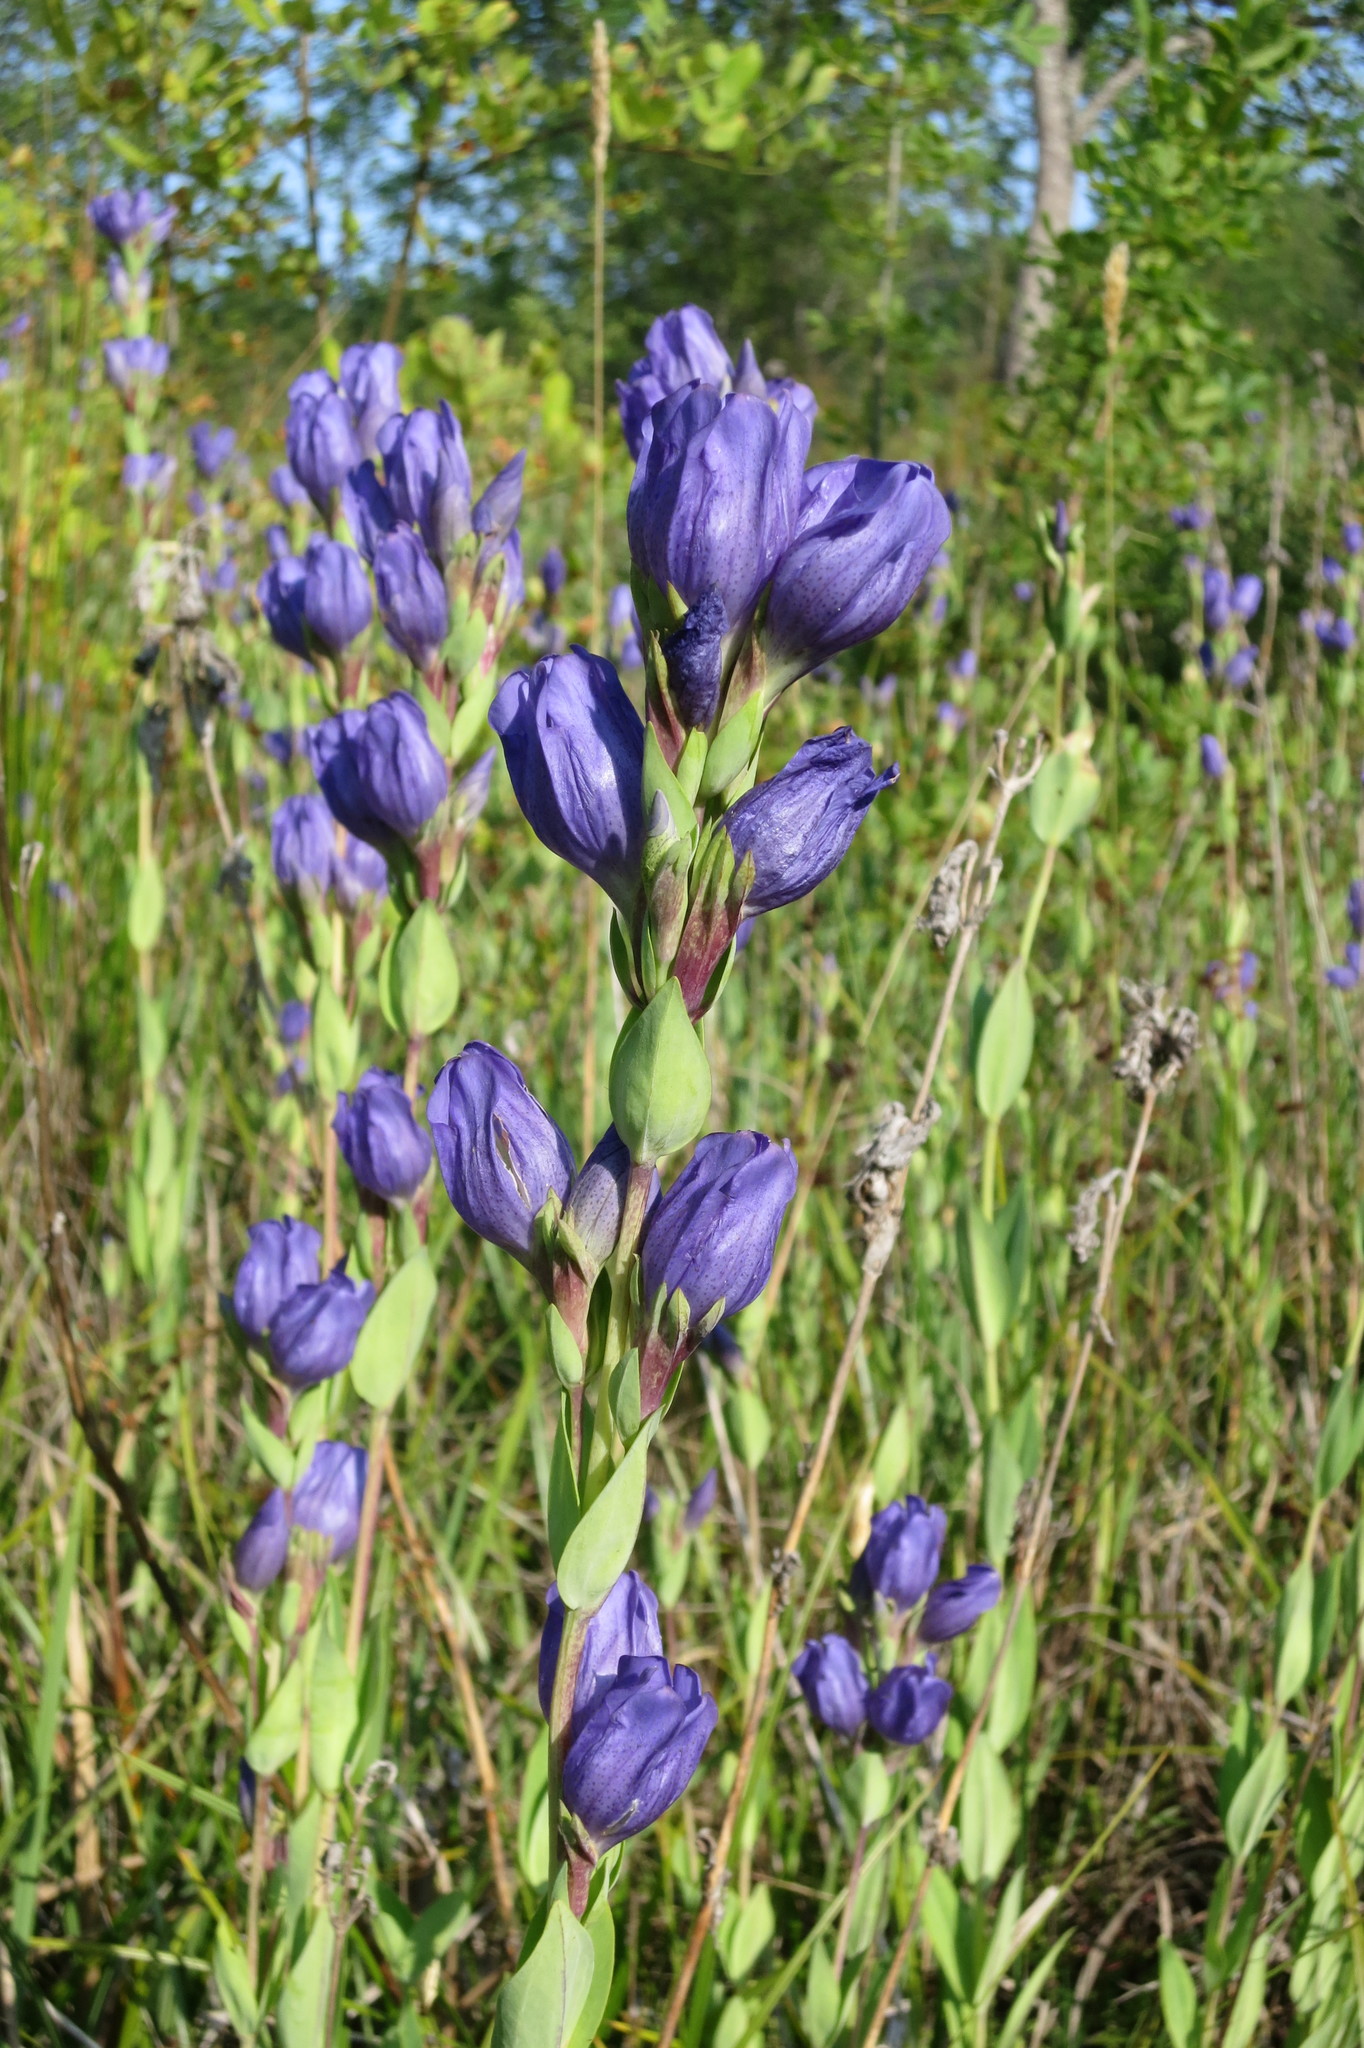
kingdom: Plantae
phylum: Tracheophyta
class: Magnoliopsida
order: Gentianales
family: Gentianaceae
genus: Gentiana
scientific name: Gentiana sceptrum
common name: Pacific gentian
